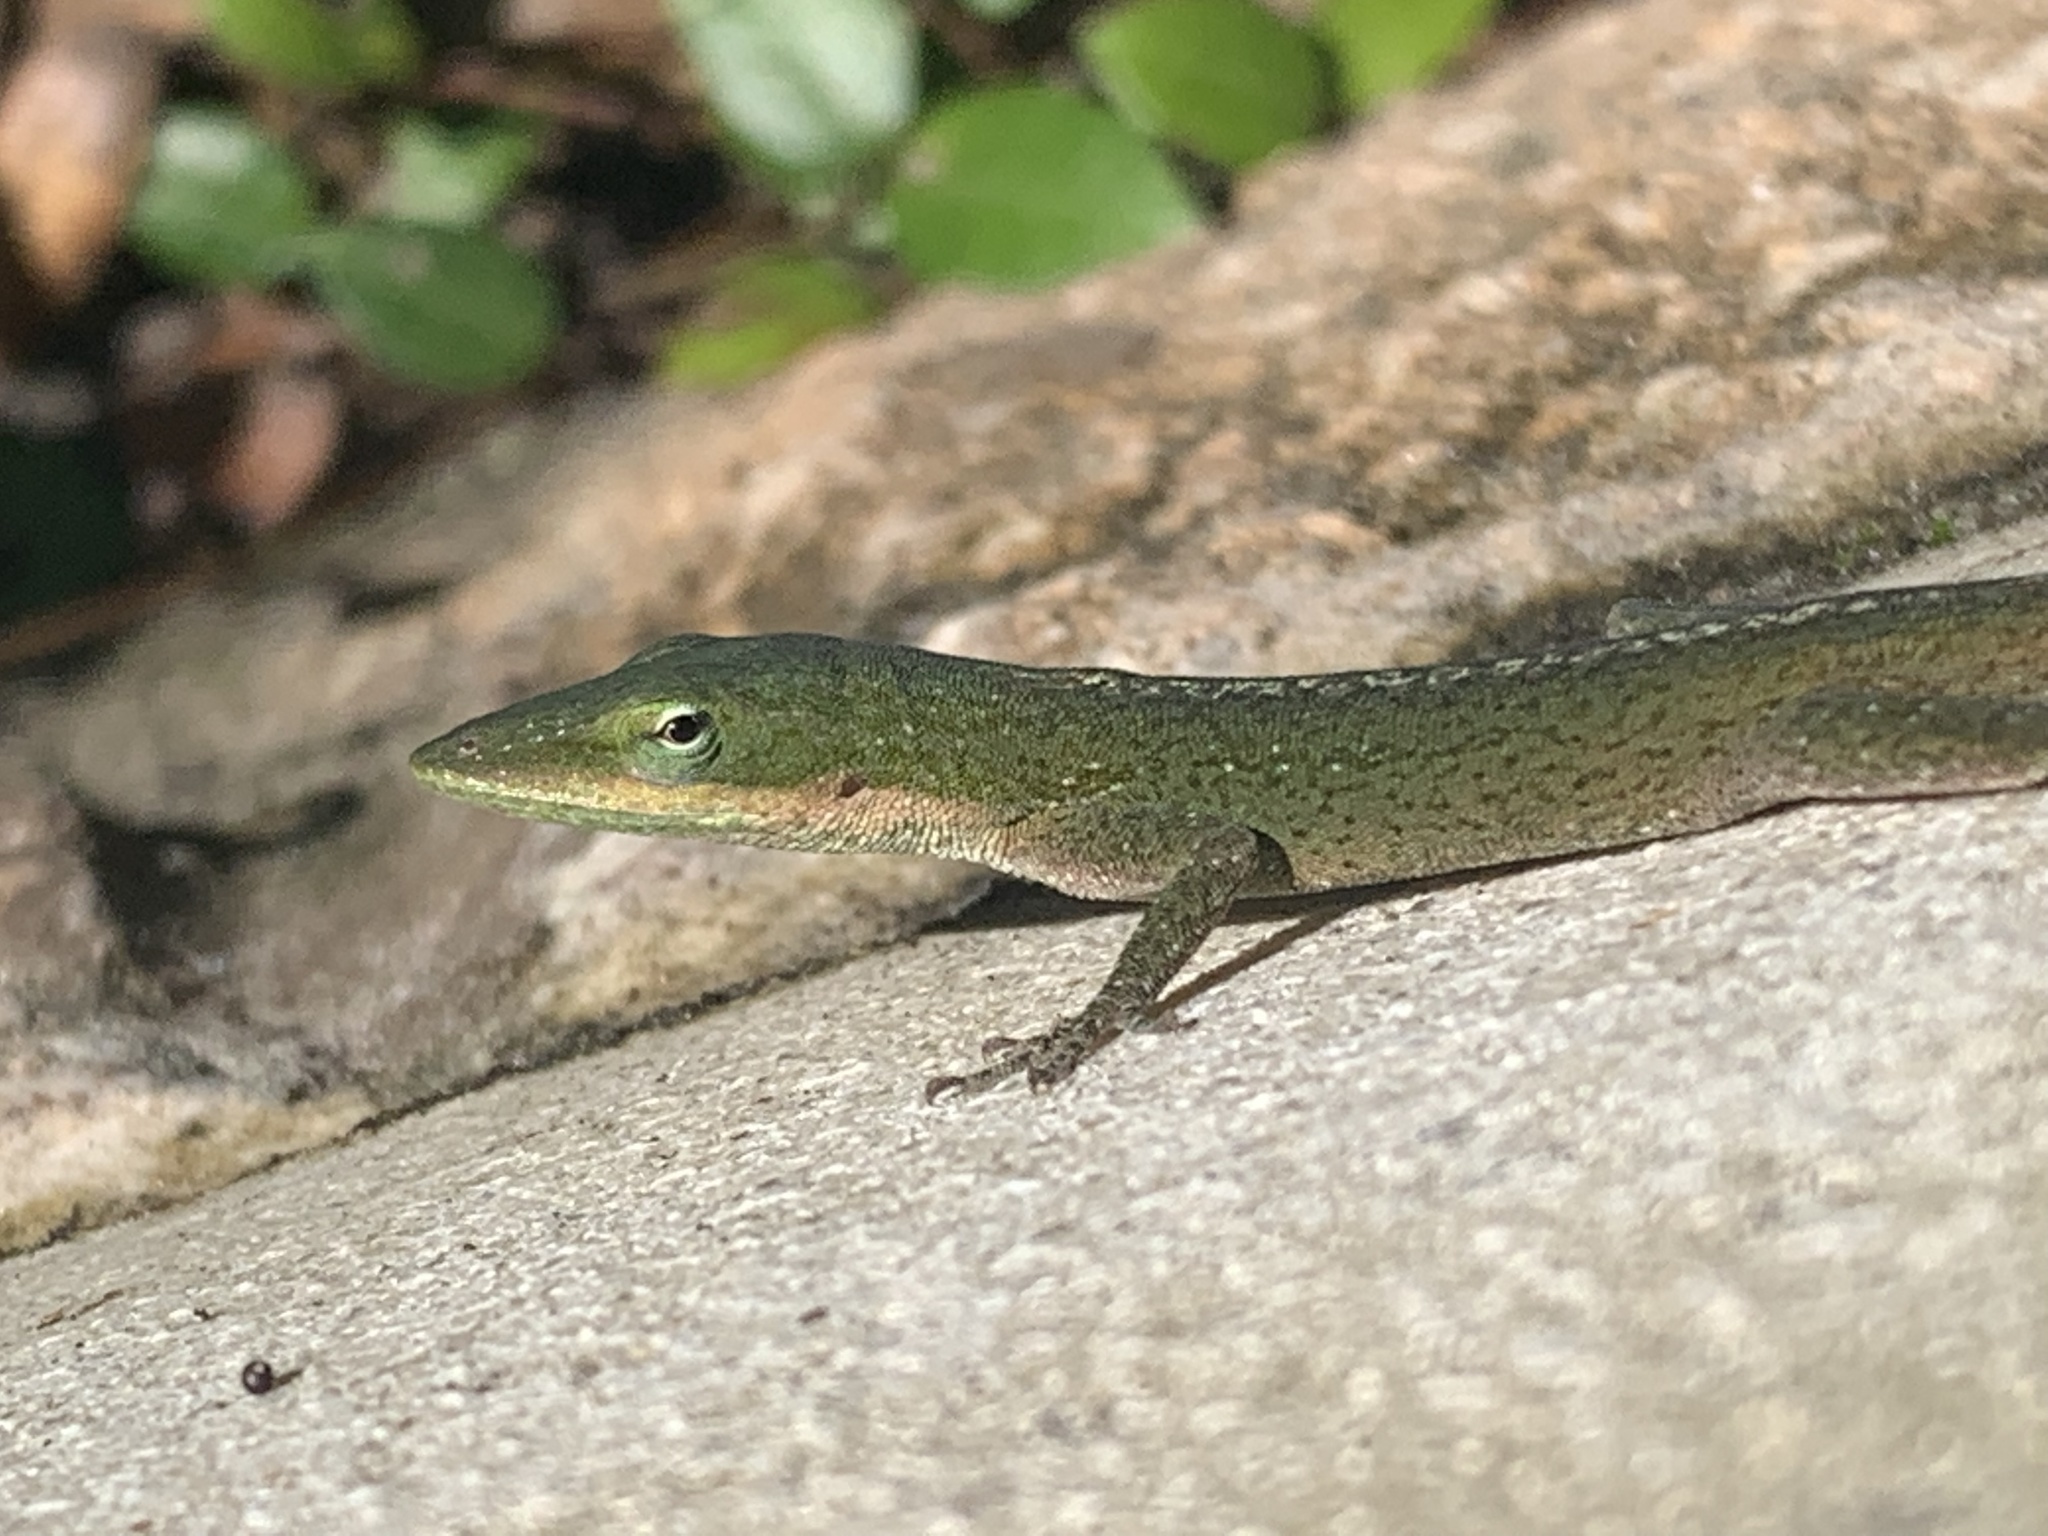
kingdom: Animalia
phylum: Chordata
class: Squamata
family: Dactyloidae
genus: Anolis
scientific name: Anolis carolinensis
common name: Green anole
